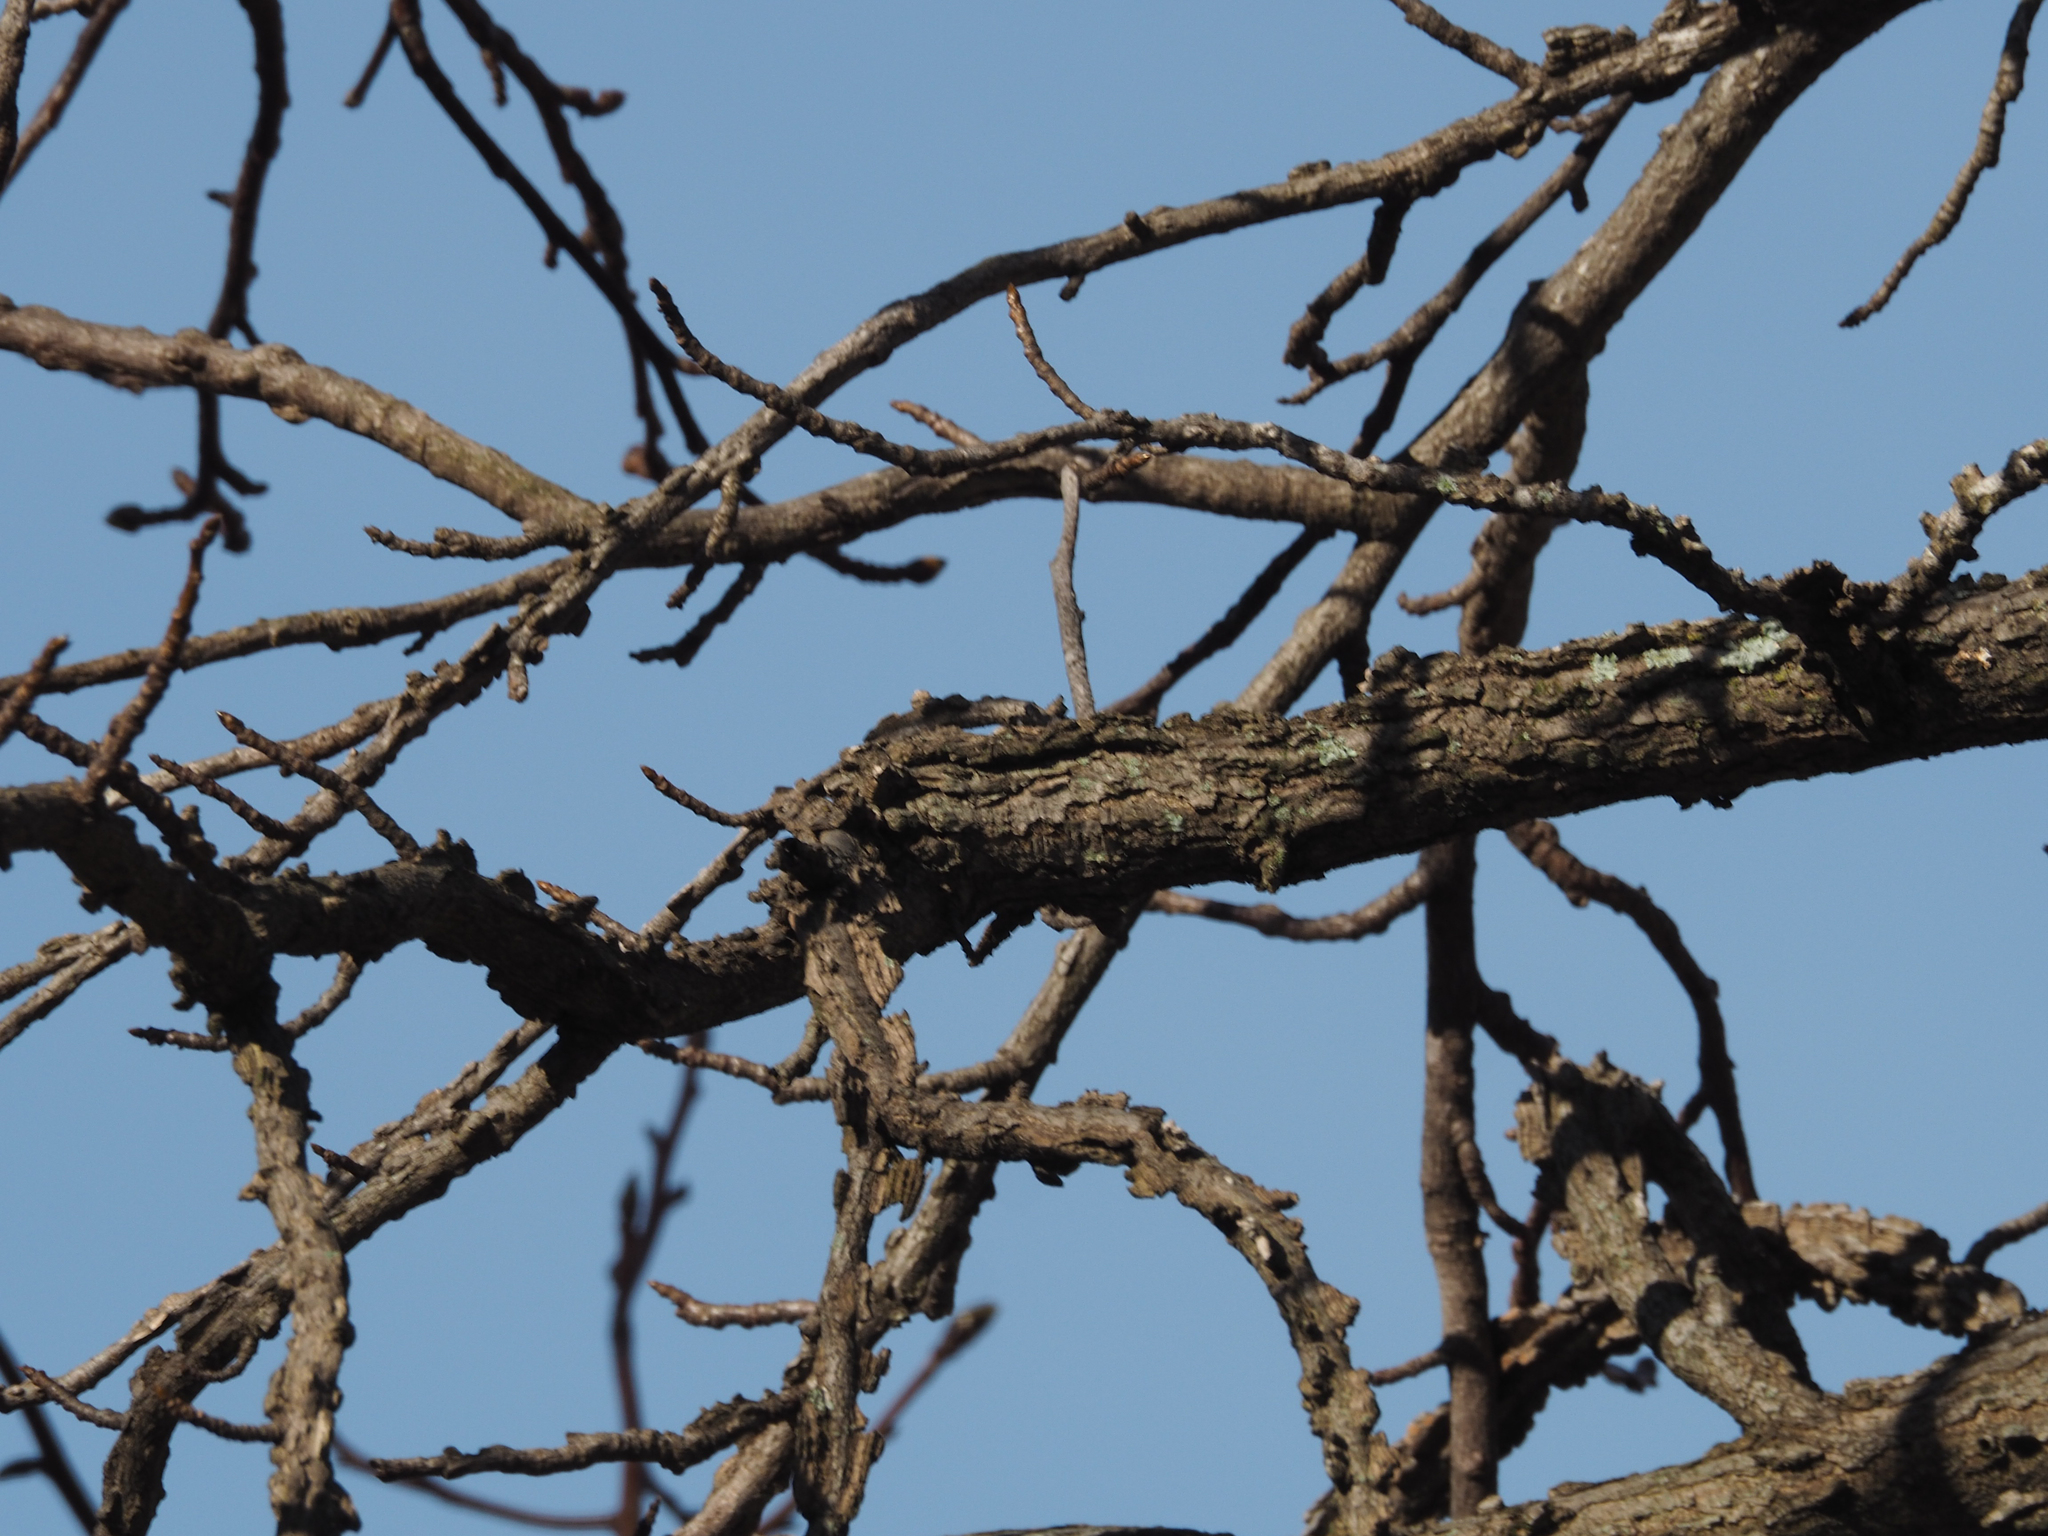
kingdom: Plantae
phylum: Tracheophyta
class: Magnoliopsida
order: Saxifragales
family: Altingiaceae
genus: Liquidambar
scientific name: Liquidambar styraciflua
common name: Sweet gum
